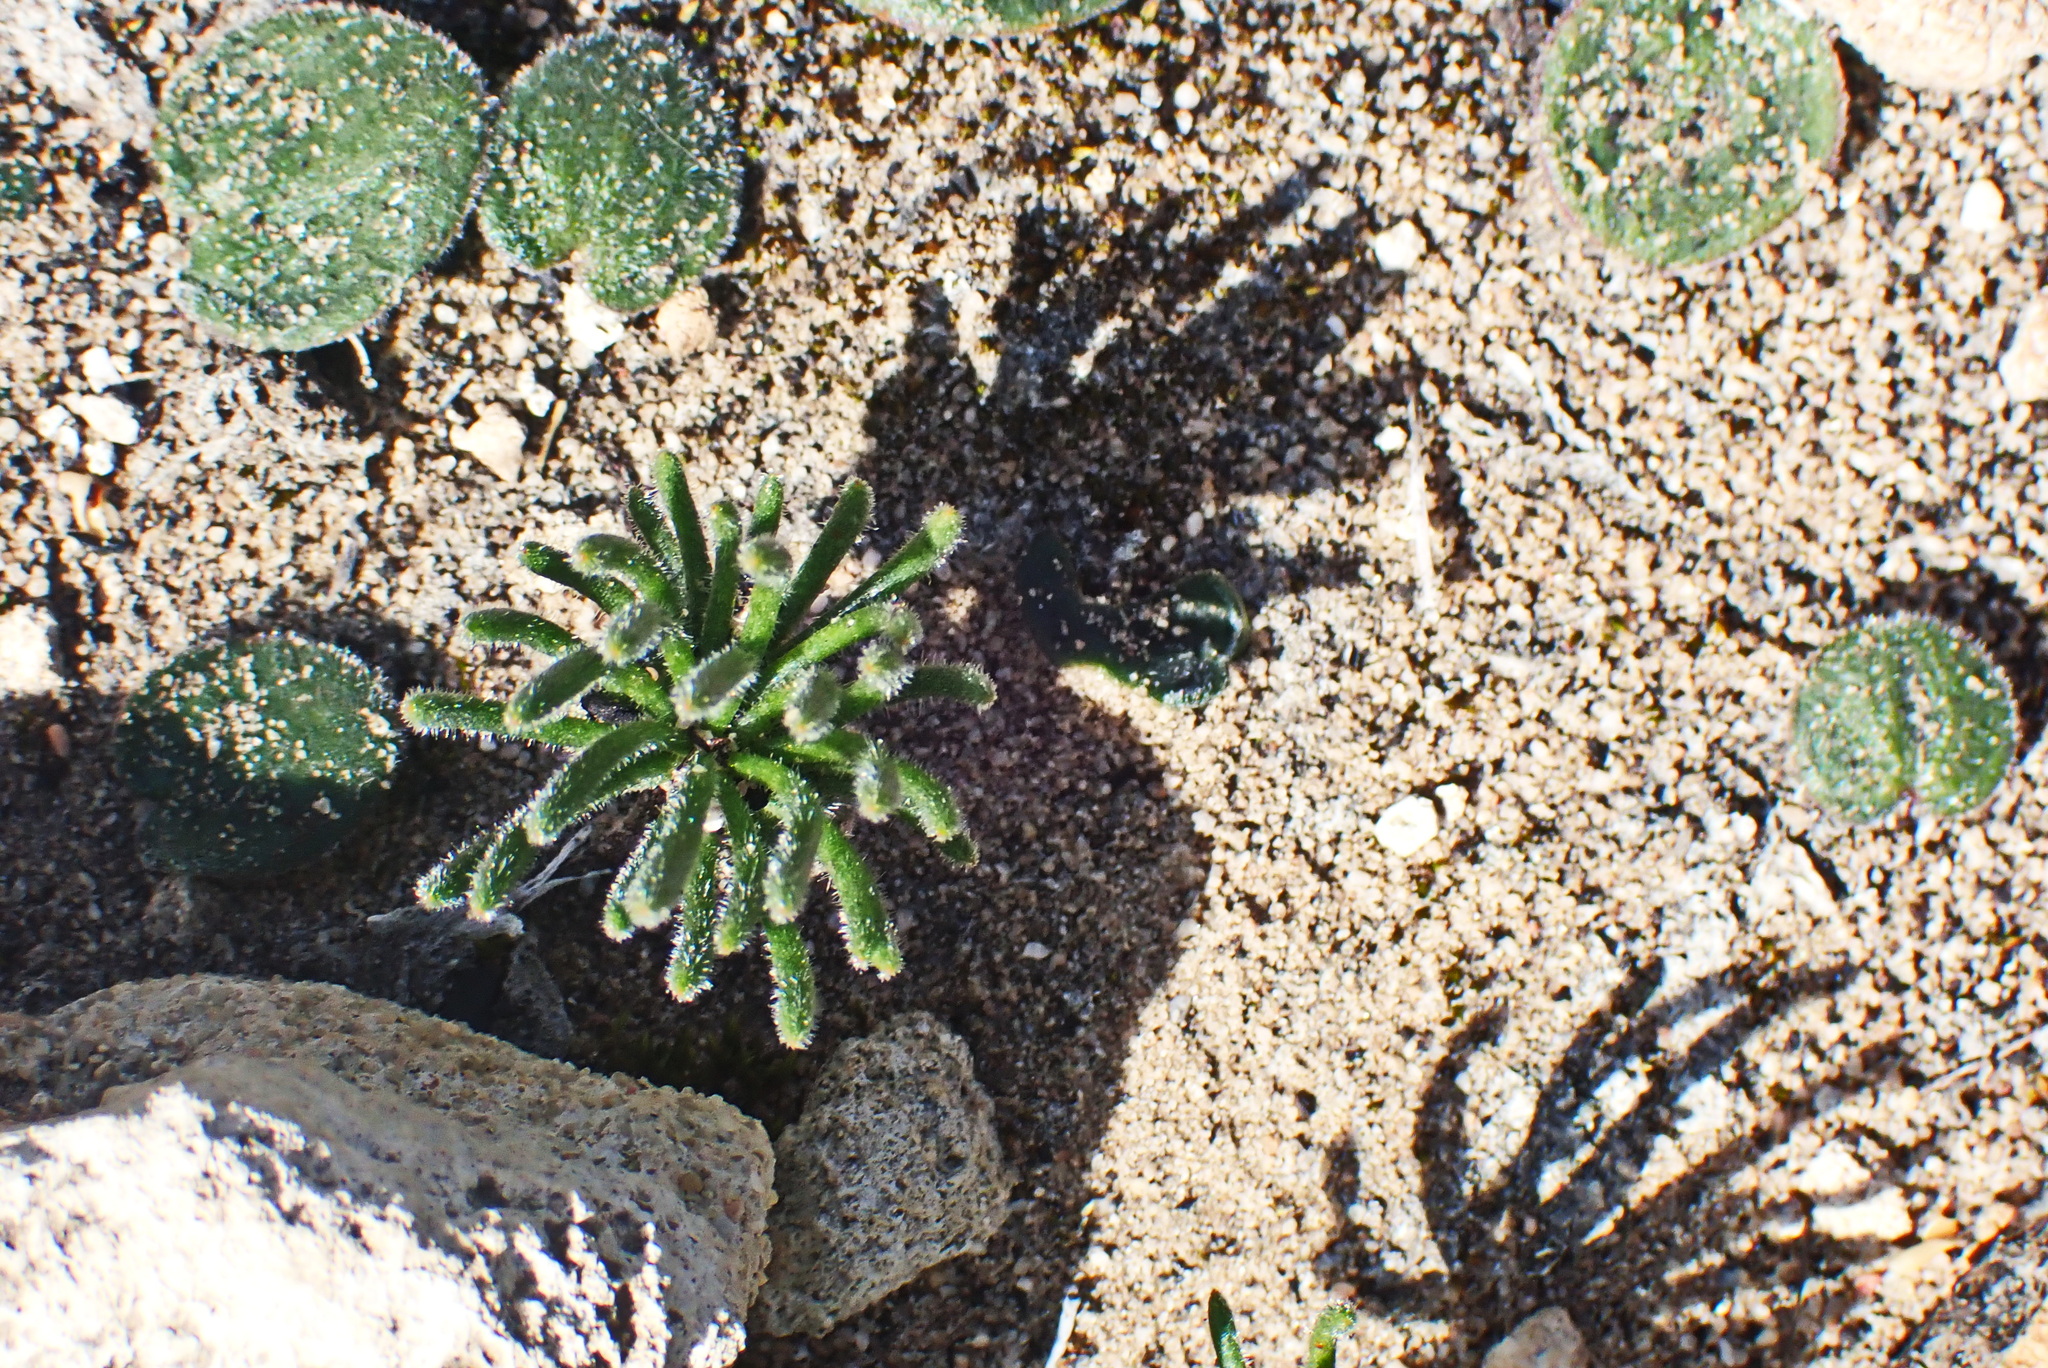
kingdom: Plantae
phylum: Tracheophyta
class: Liliopsida
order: Asparagales
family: Asparagaceae
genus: Eriospermum
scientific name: Eriospermum proliferum
